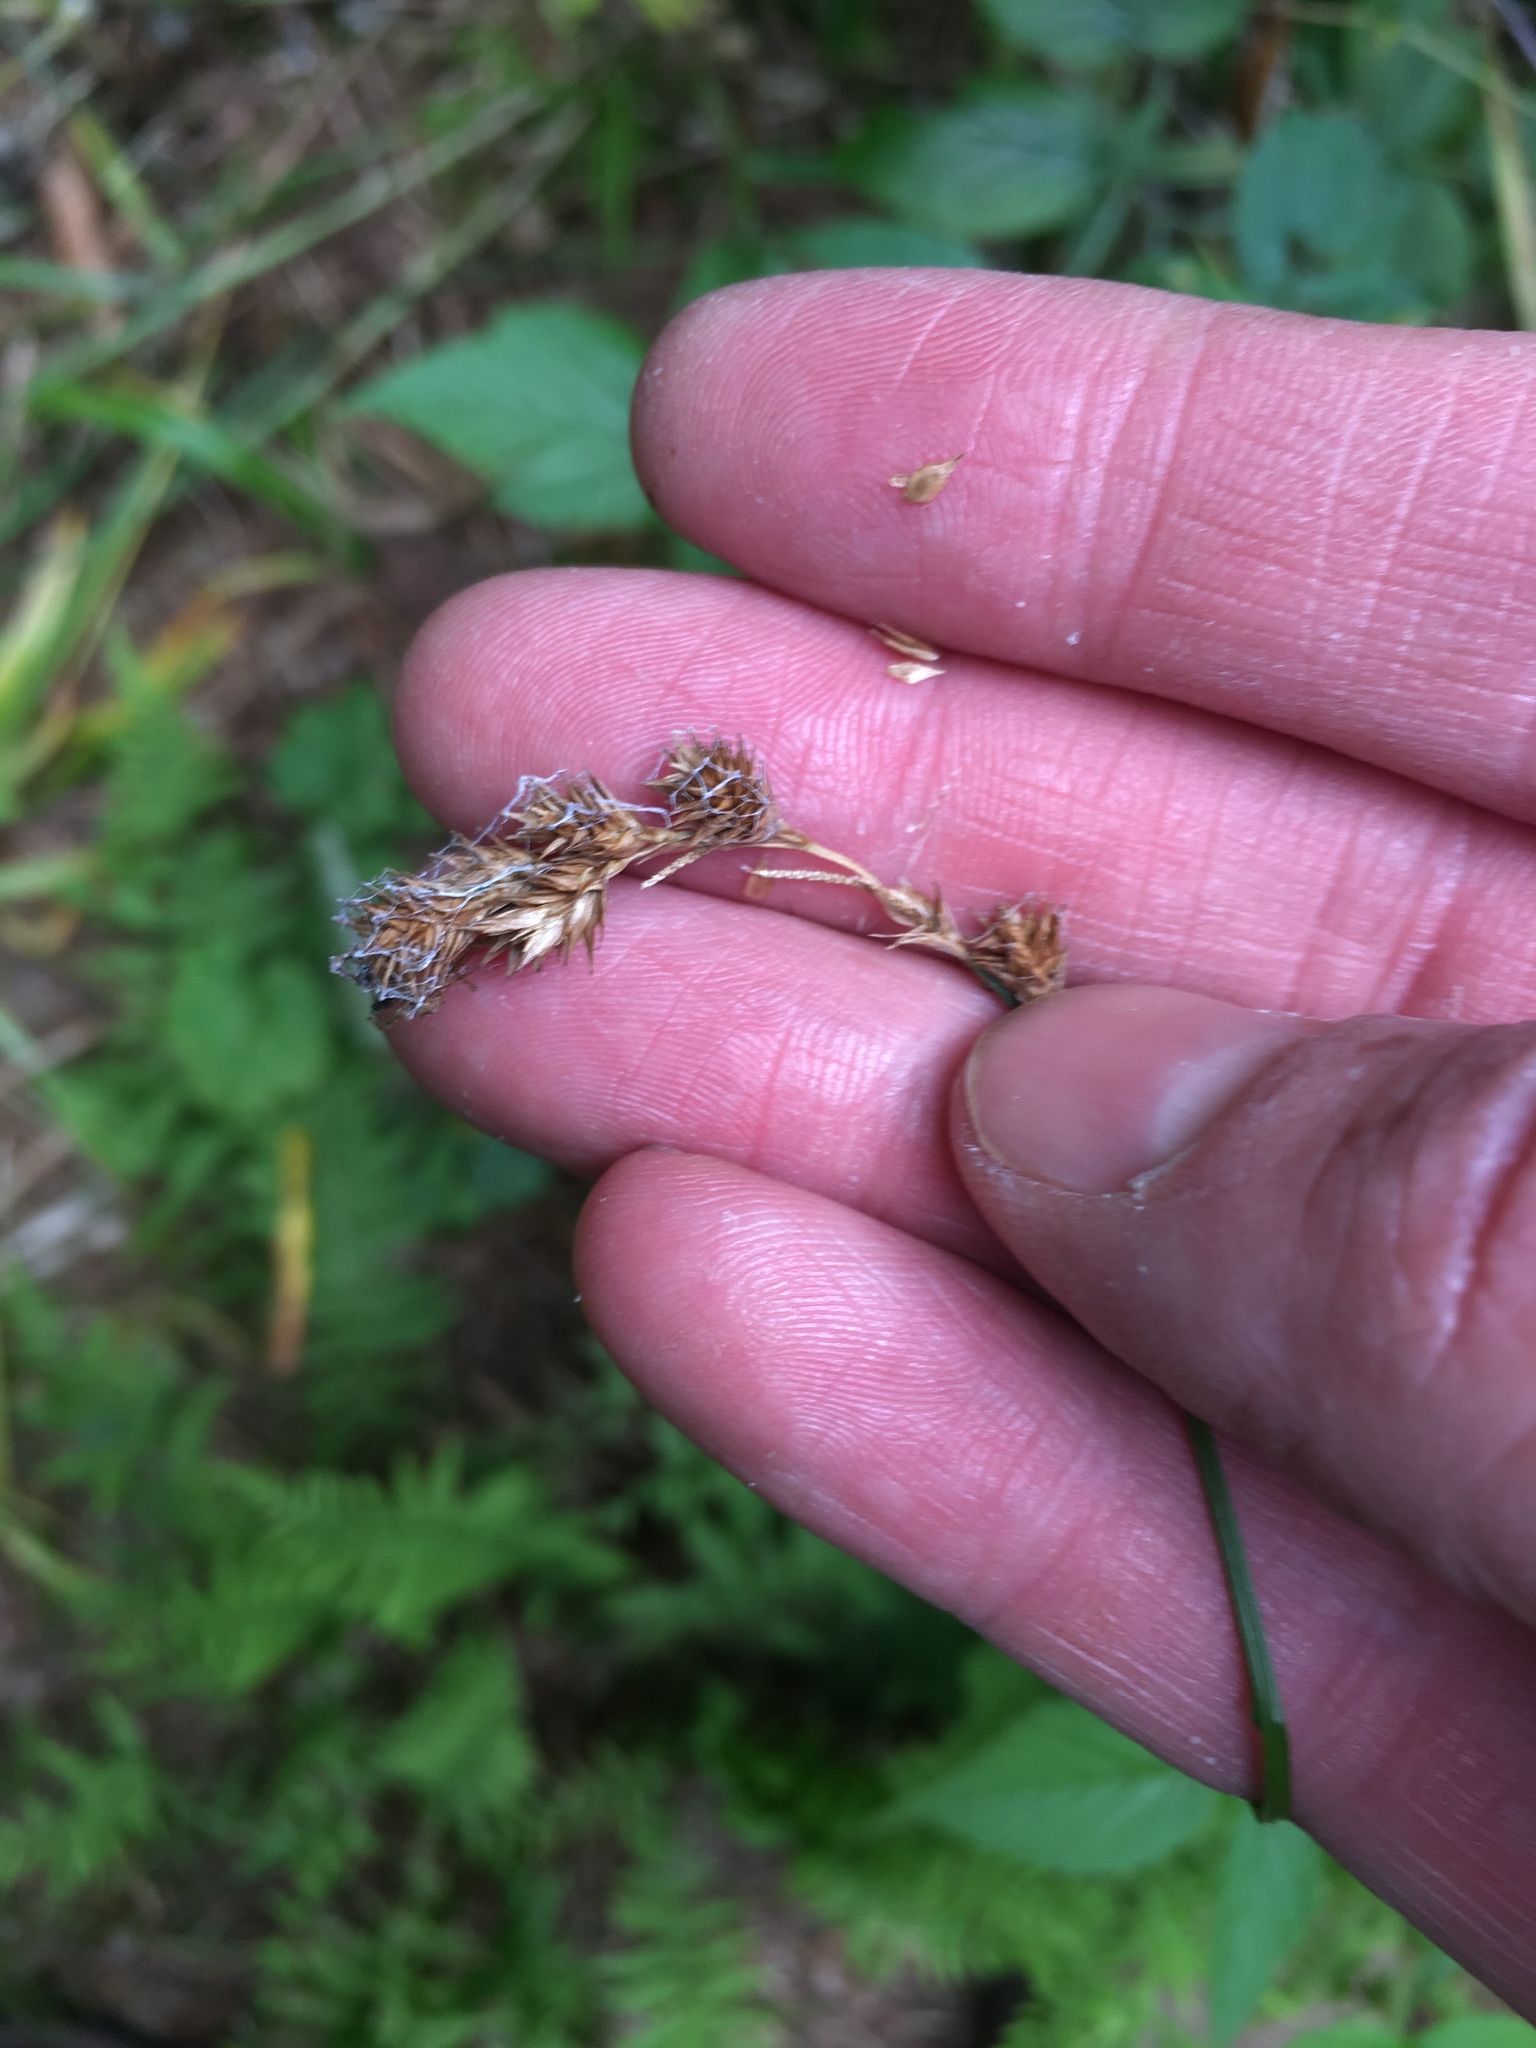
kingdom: Plantae
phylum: Tracheophyta
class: Liliopsida
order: Poales
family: Cyperaceae
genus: Carex
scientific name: Carex projecta
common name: Loose-headed oval sedge
